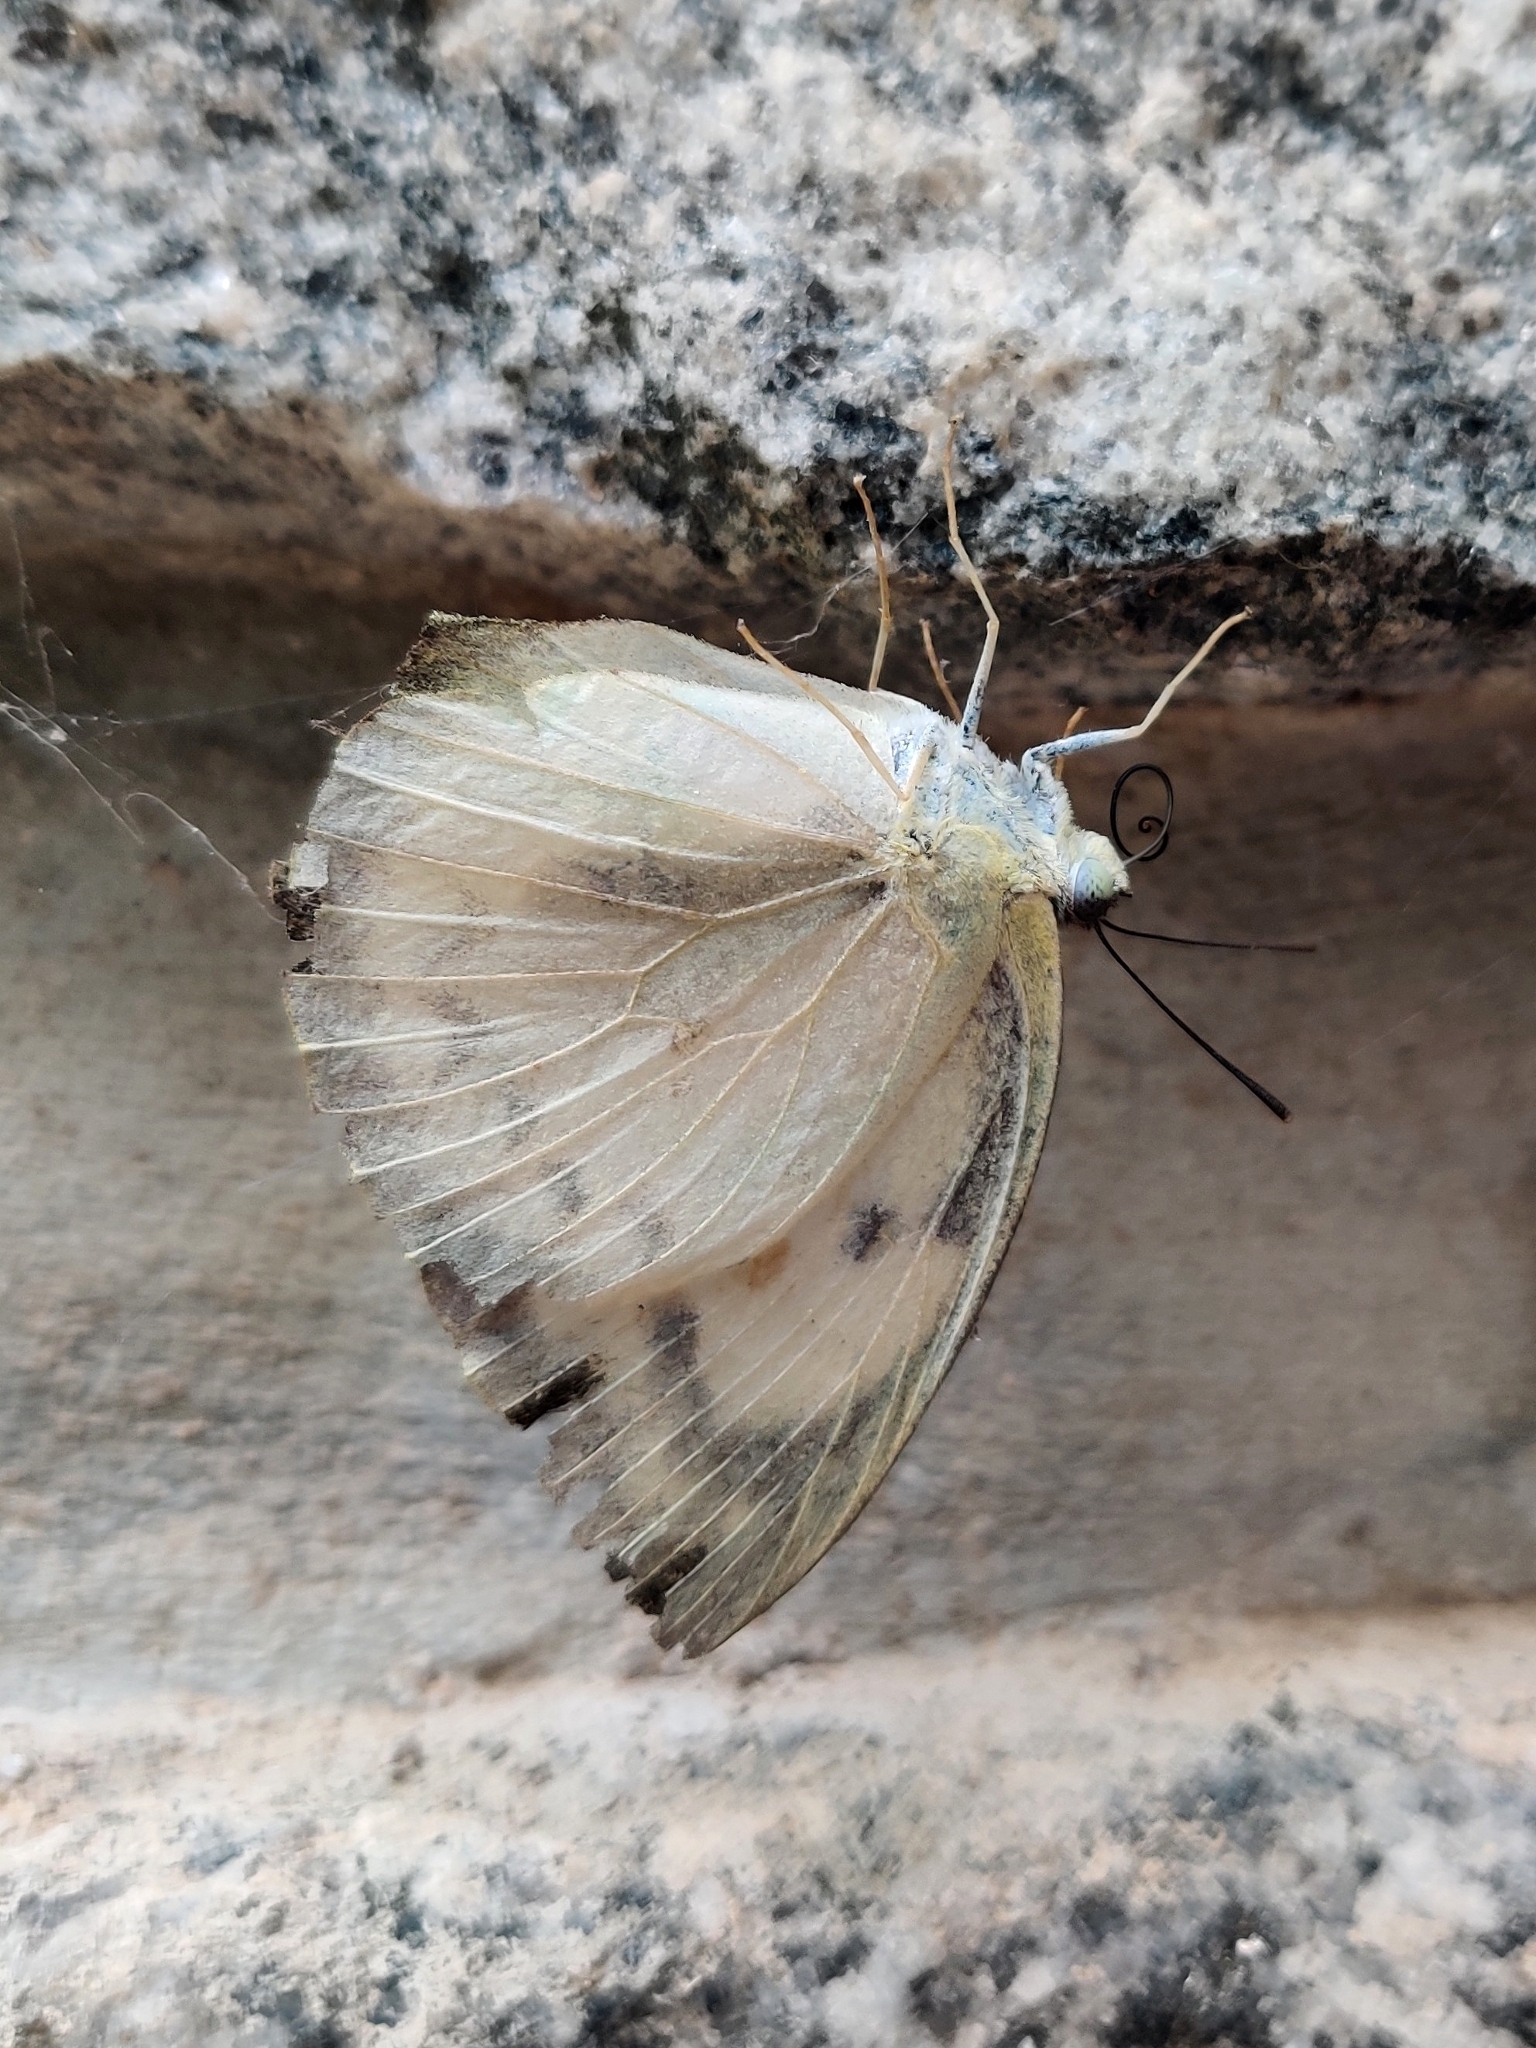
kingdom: Animalia
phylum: Arthropoda
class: Insecta
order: Lepidoptera
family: Pieridae
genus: Catopsilia
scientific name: Catopsilia pomona
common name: Common emigrant
